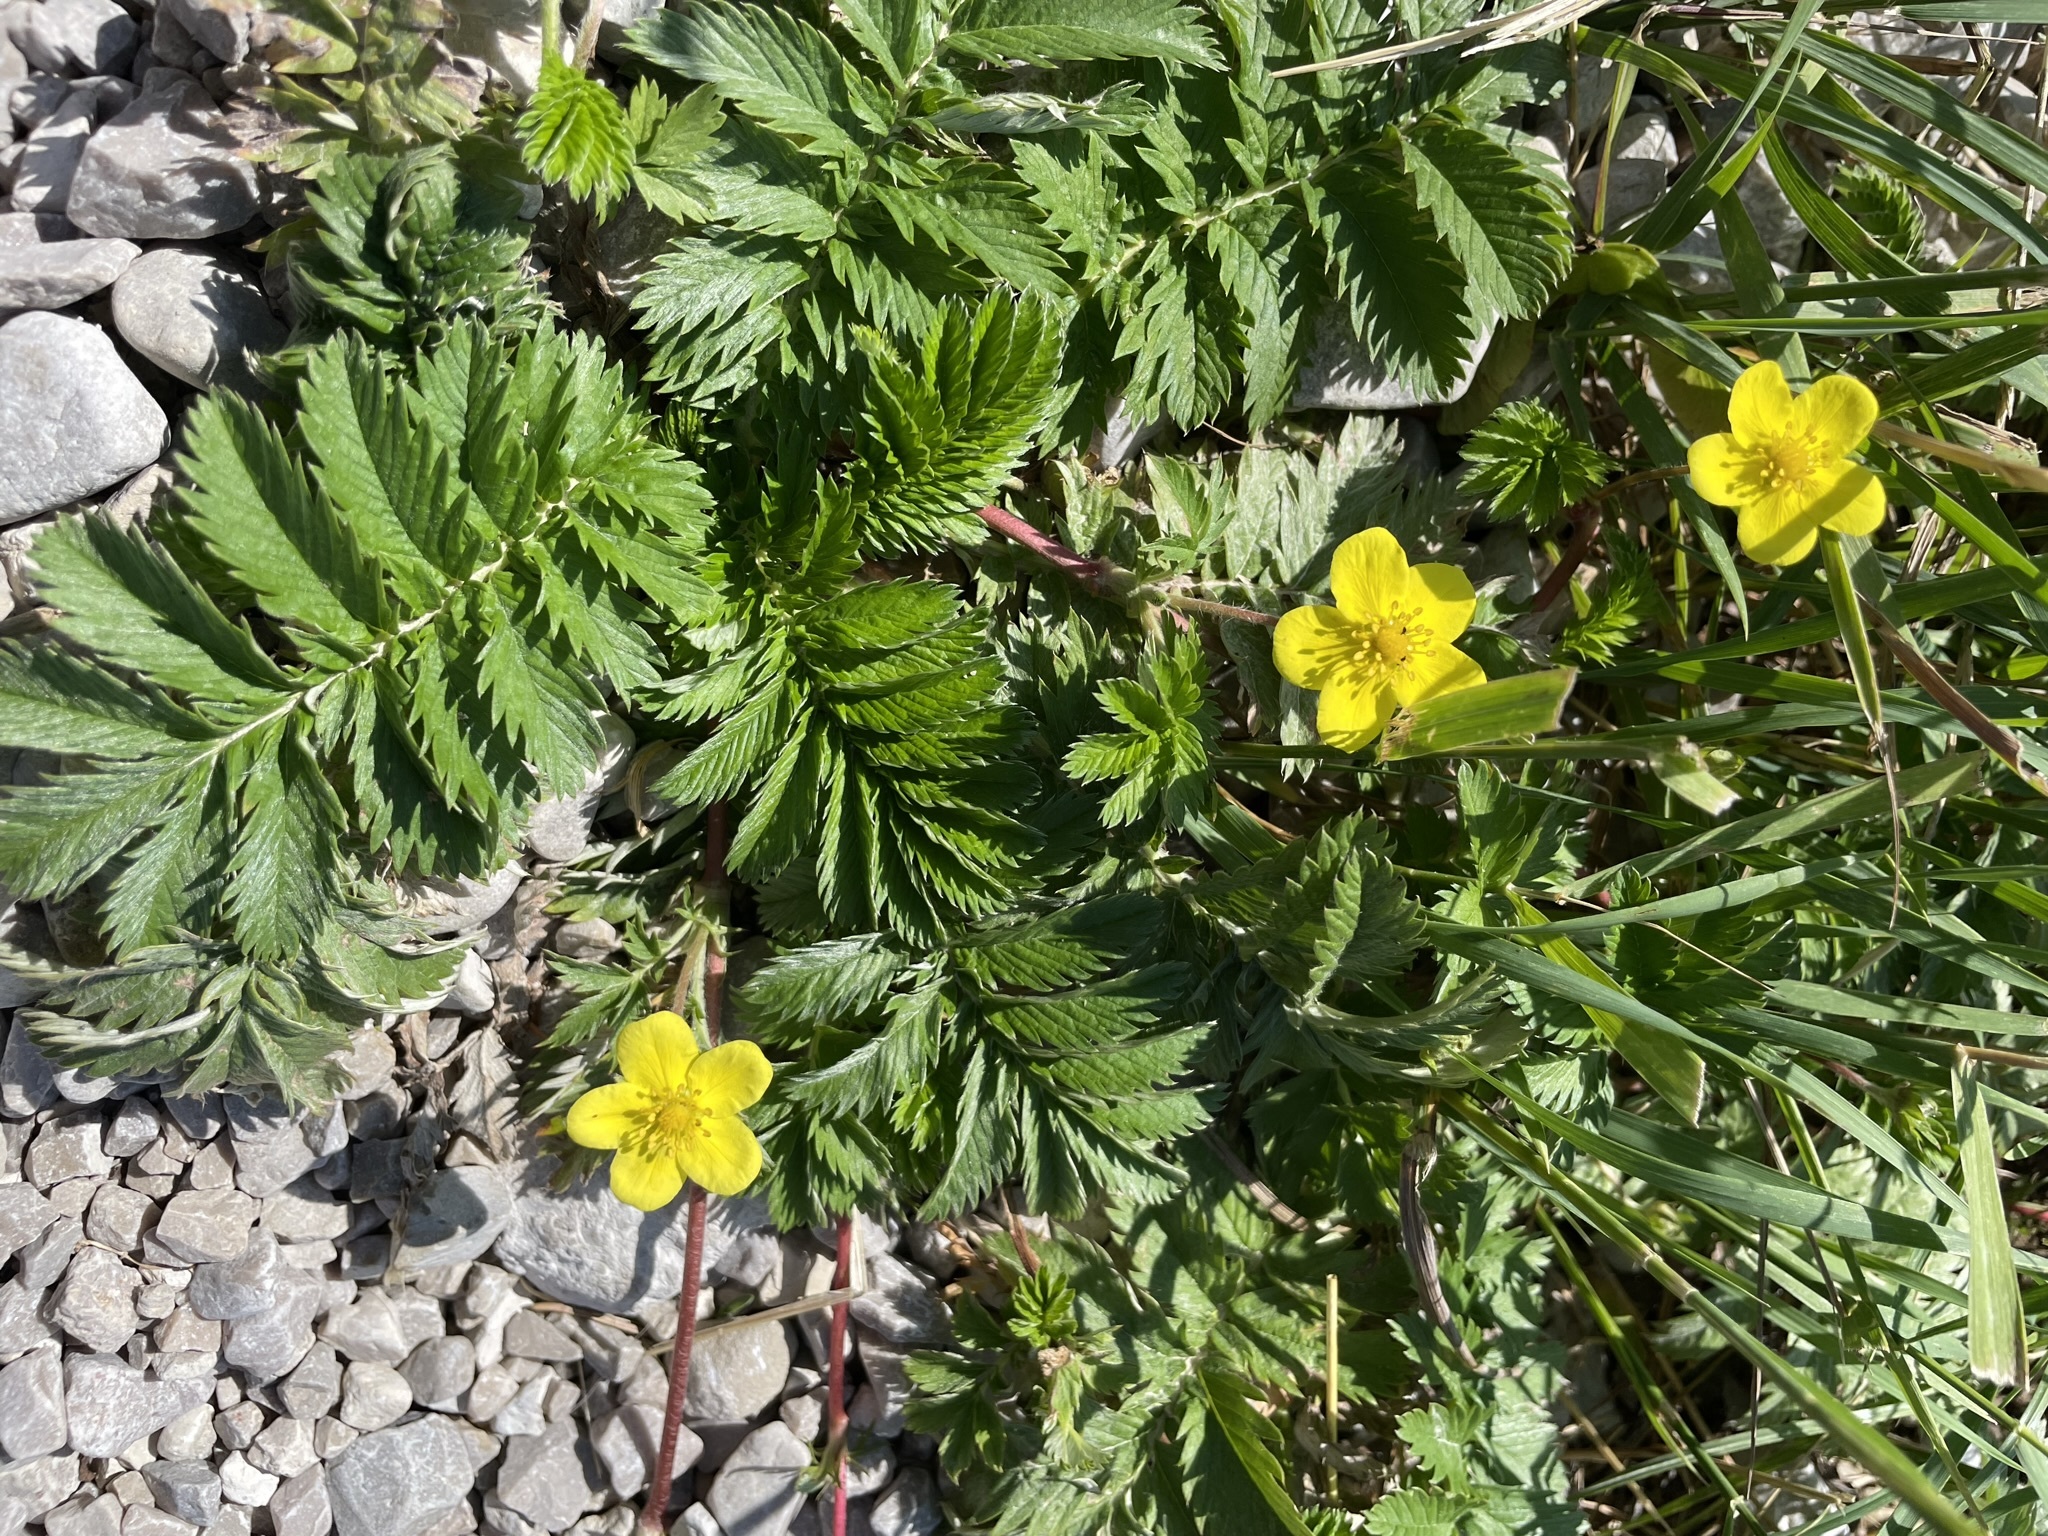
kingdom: Plantae
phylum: Tracheophyta
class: Magnoliopsida
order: Rosales
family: Rosaceae
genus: Argentina
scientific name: Argentina anserina
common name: Common silverweed
